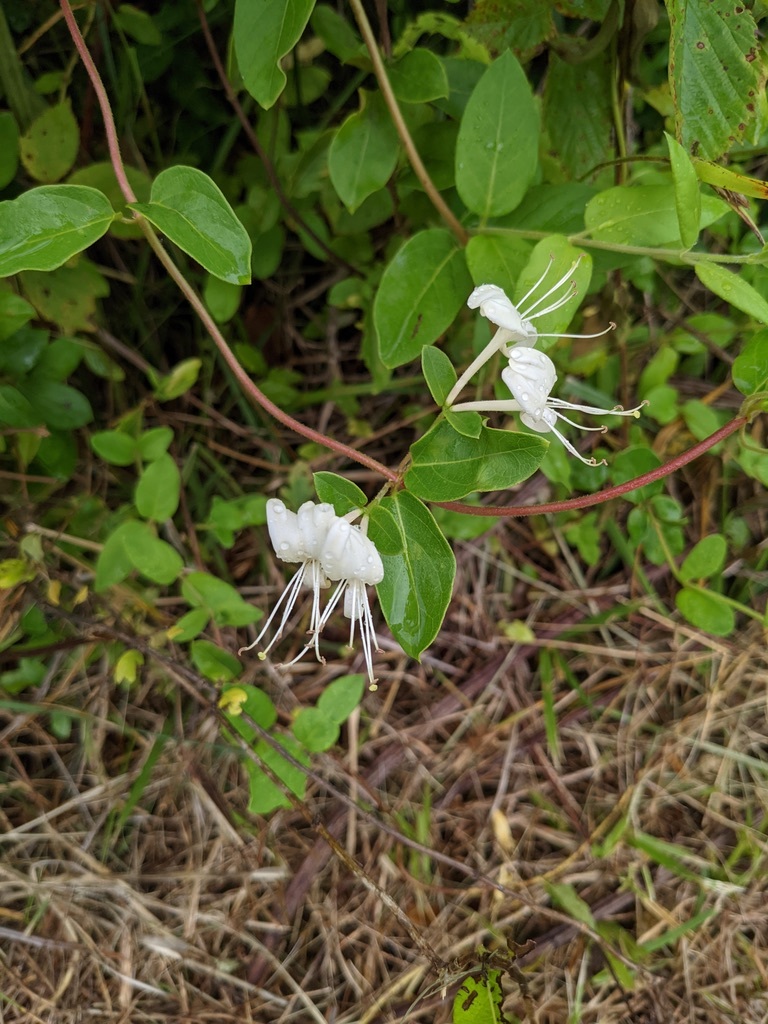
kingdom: Plantae
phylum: Tracheophyta
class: Magnoliopsida
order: Dipsacales
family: Caprifoliaceae
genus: Lonicera
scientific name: Lonicera japonica
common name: Japanese honeysuckle
